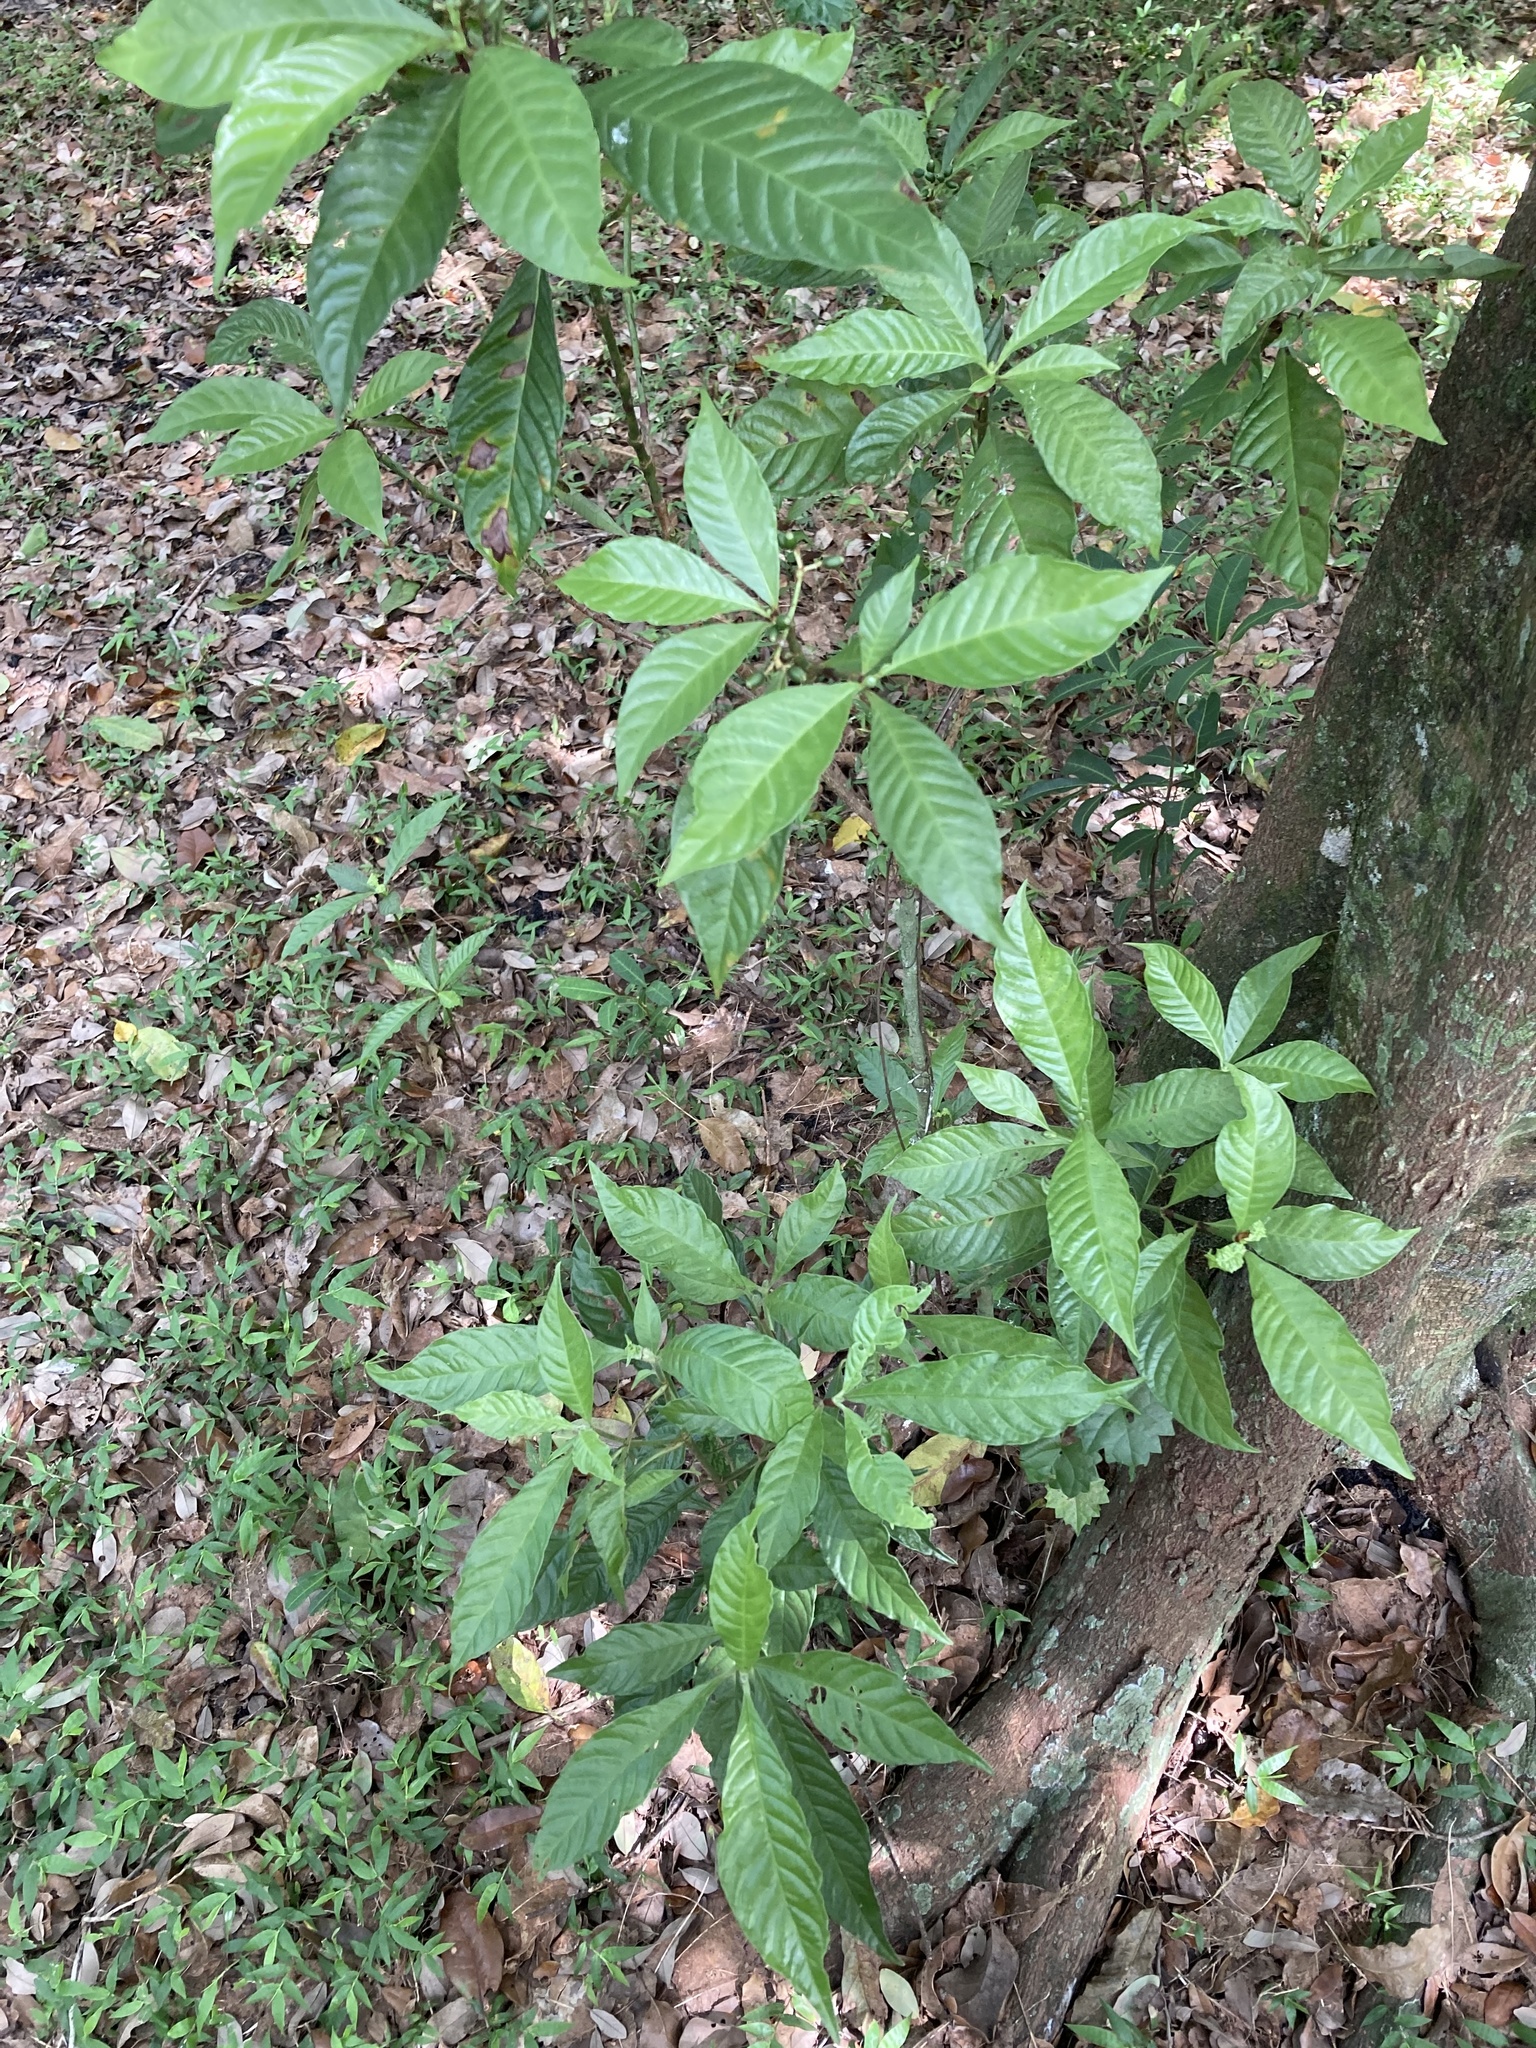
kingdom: Plantae
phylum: Tracheophyta
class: Magnoliopsida
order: Gentianales
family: Rubiaceae
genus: Psychotria
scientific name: Psychotria nervosa
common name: Bastard cankerberry
